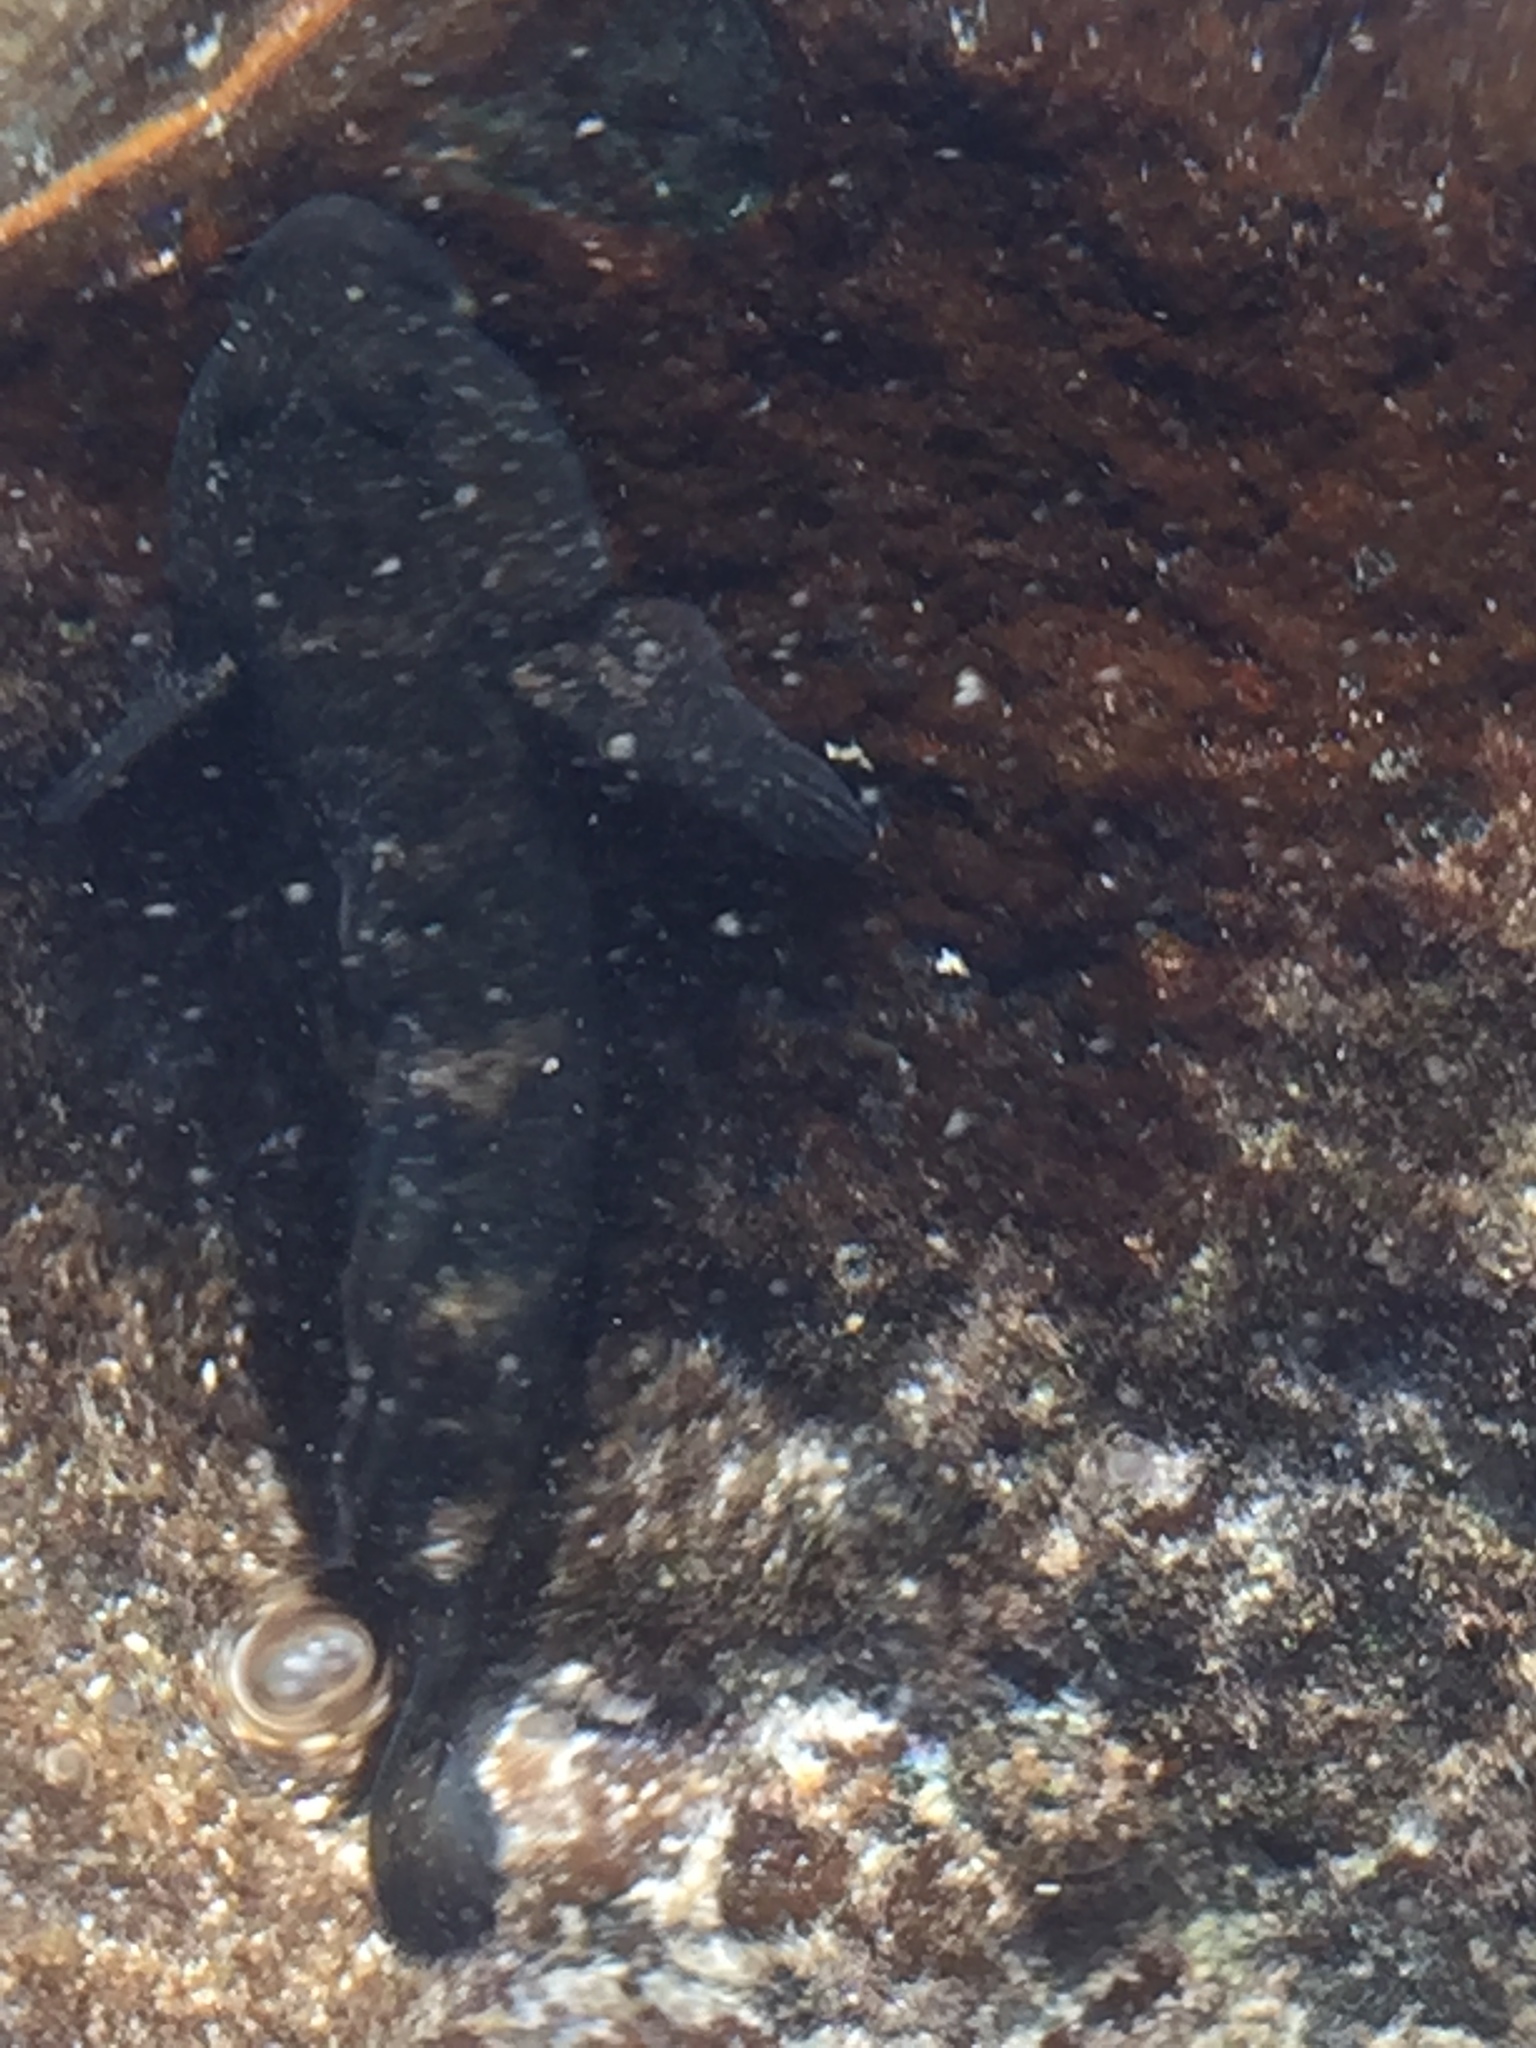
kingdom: Animalia
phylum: Chordata
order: Perciformes
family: Gobiidae
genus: Mauligobius
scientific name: Mauligobius maderensis
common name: Rock goby
